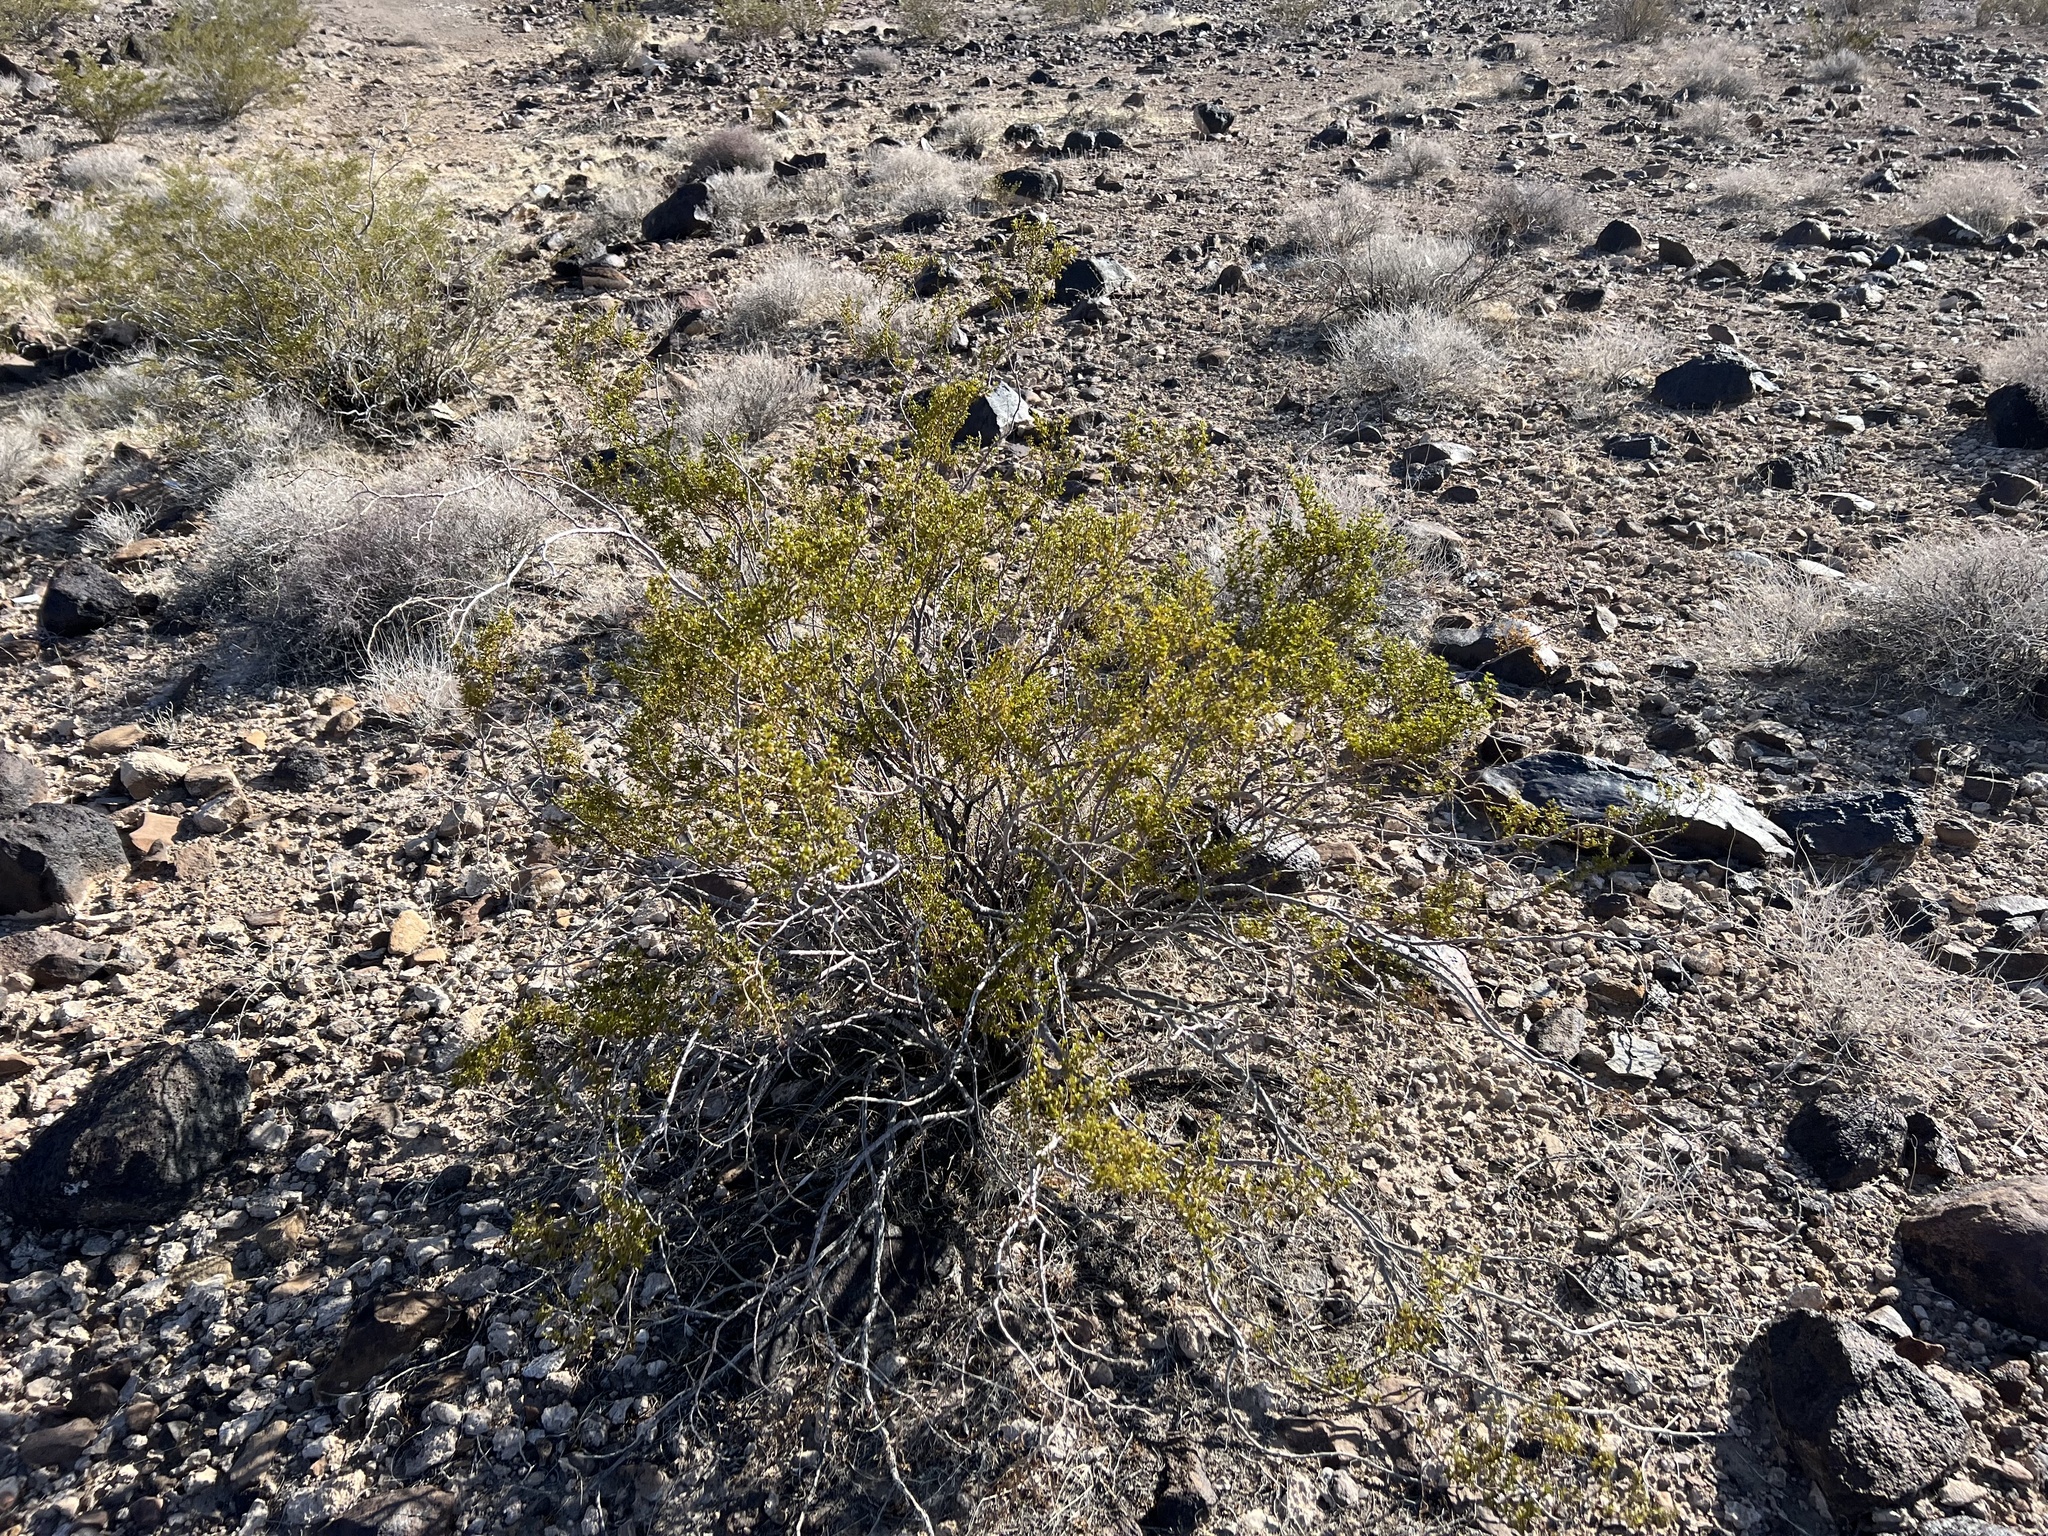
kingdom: Plantae
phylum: Tracheophyta
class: Magnoliopsida
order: Zygophyllales
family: Zygophyllaceae
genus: Larrea
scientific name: Larrea tridentata
